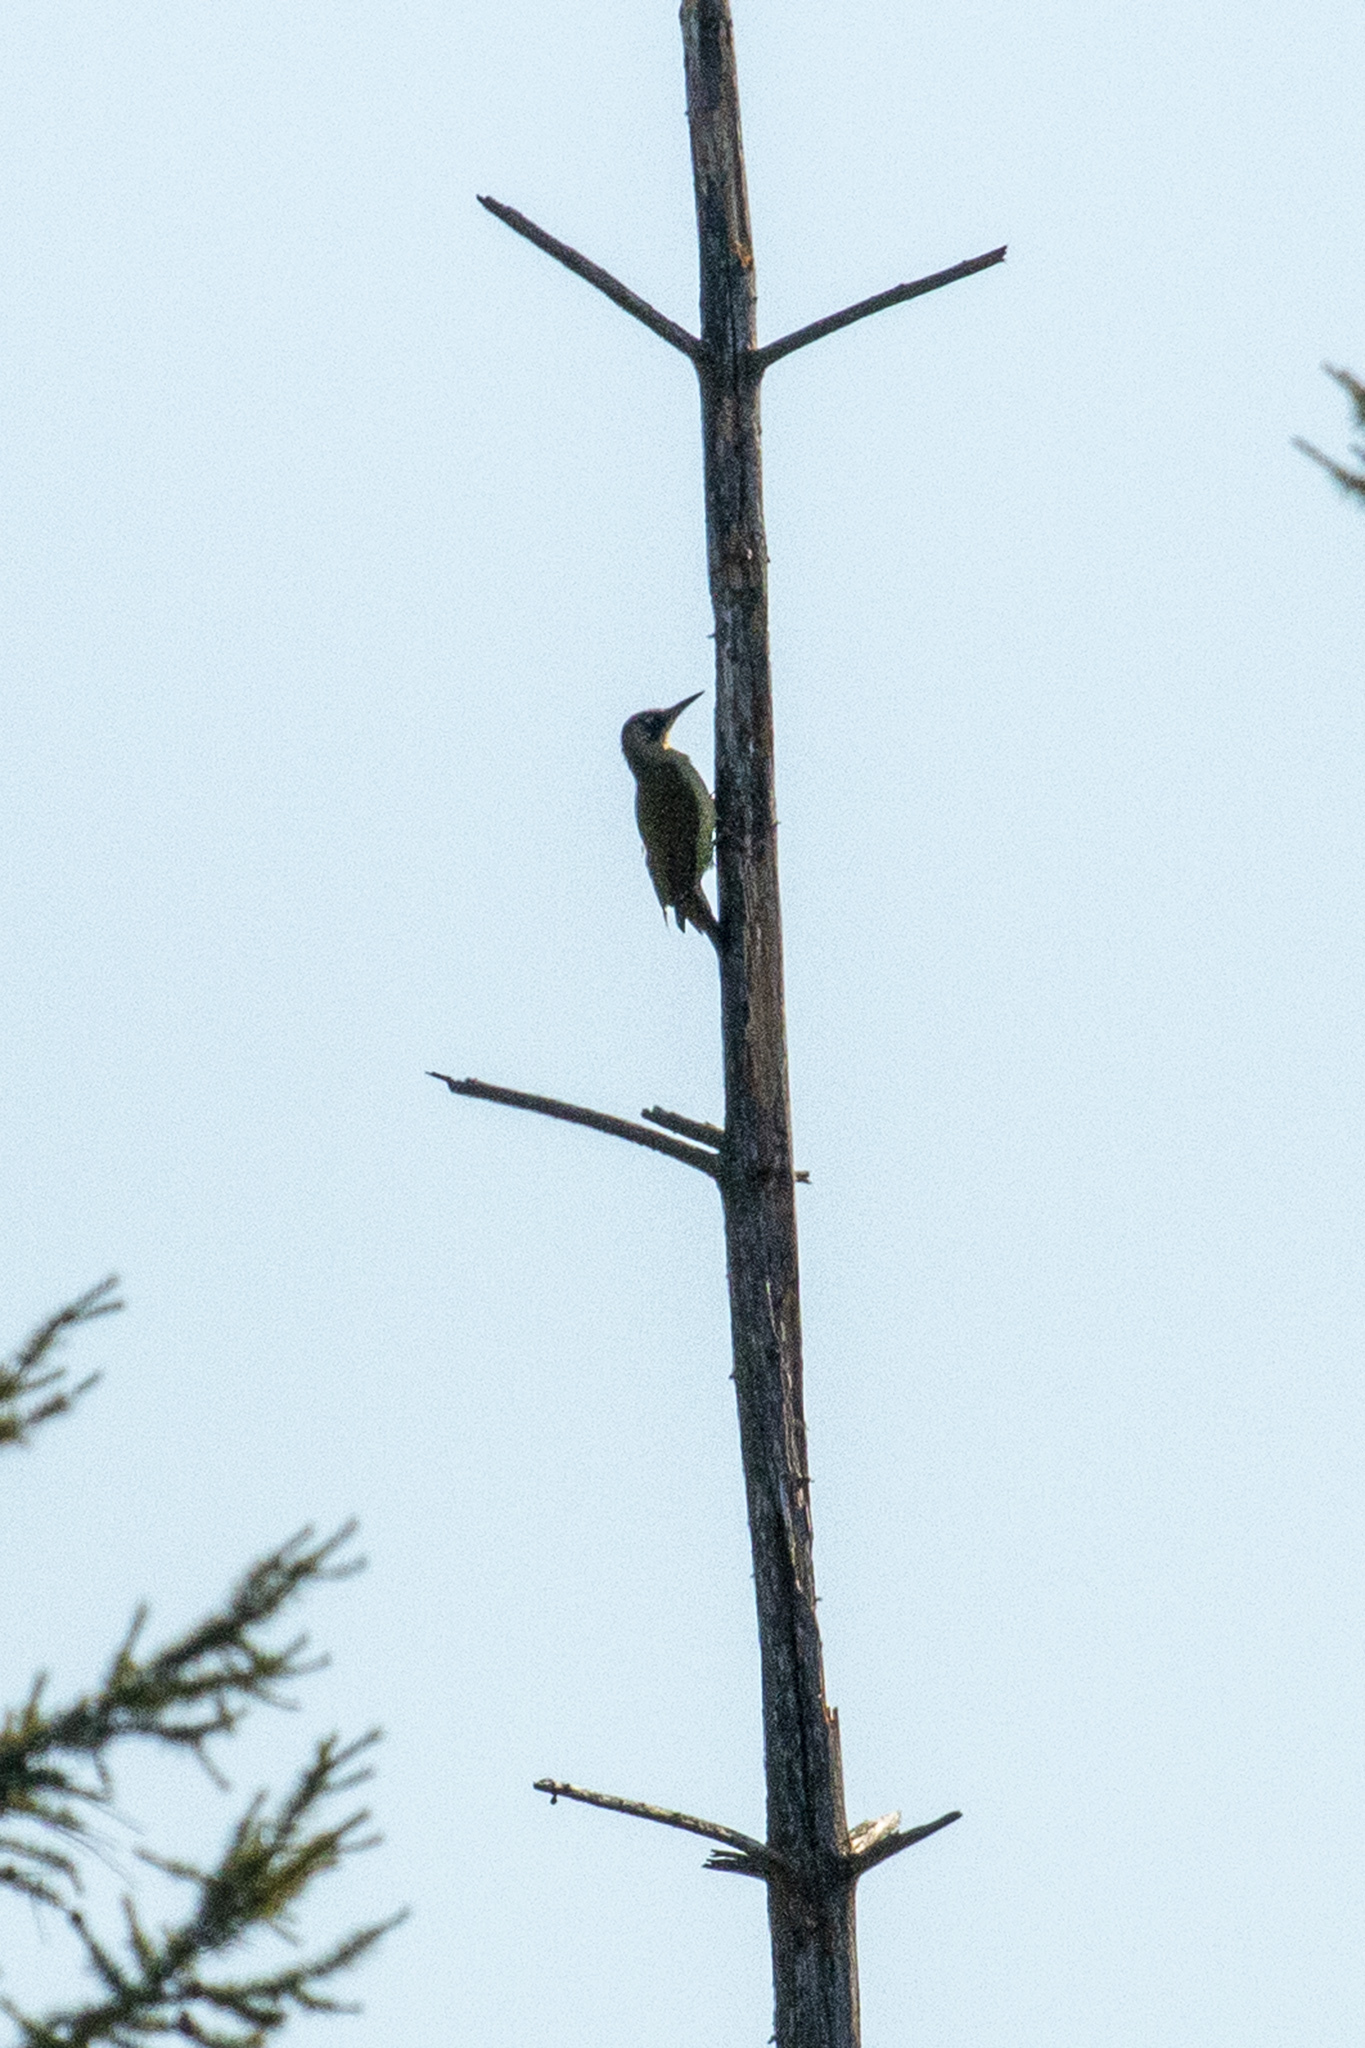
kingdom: Animalia
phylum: Chordata
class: Aves
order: Piciformes
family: Picidae
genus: Picus
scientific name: Picus viridis
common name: European green woodpecker
